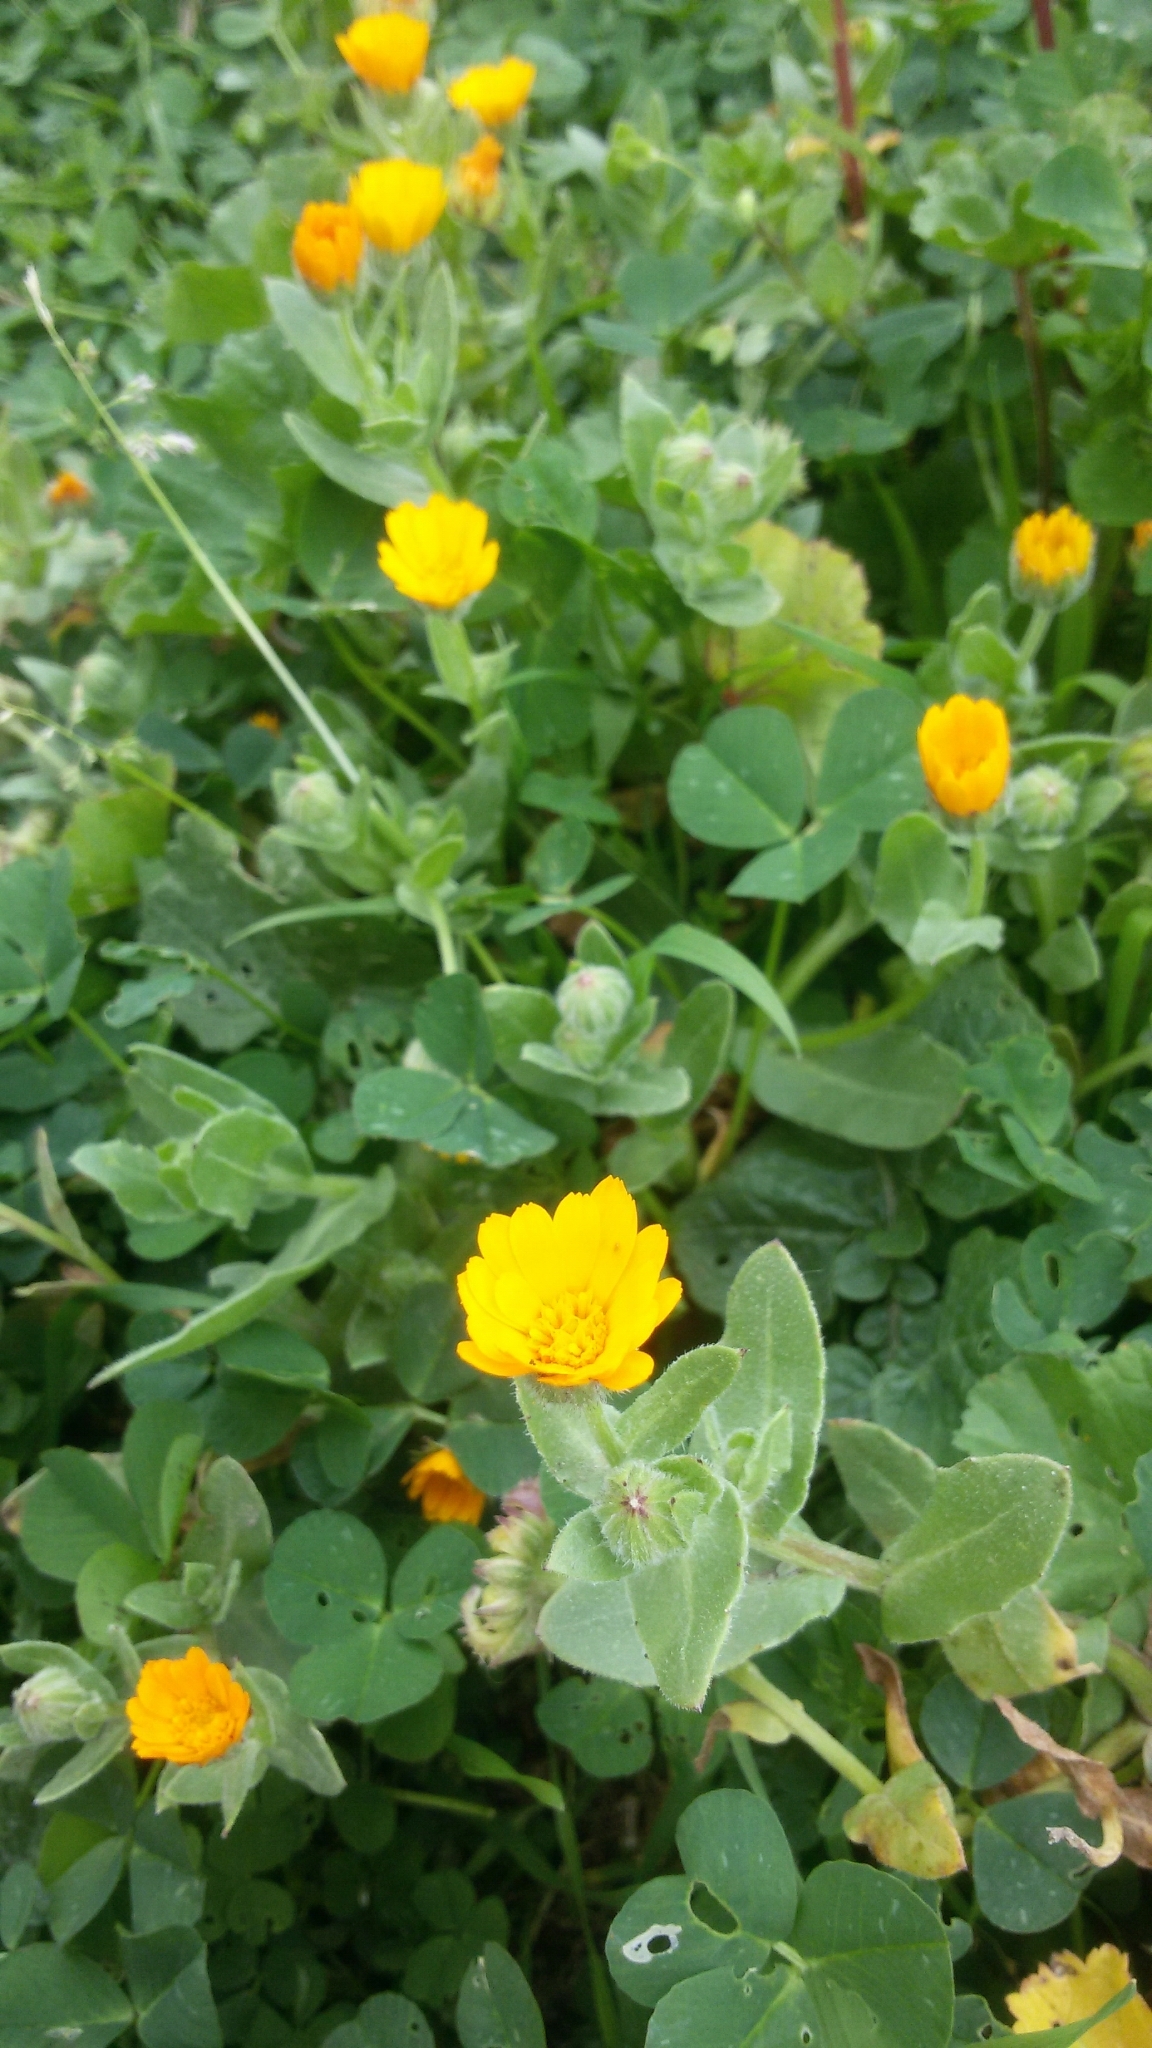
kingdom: Plantae
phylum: Tracheophyta
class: Magnoliopsida
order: Asterales
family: Asteraceae
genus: Calendula
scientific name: Calendula arvensis
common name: Field marigold
